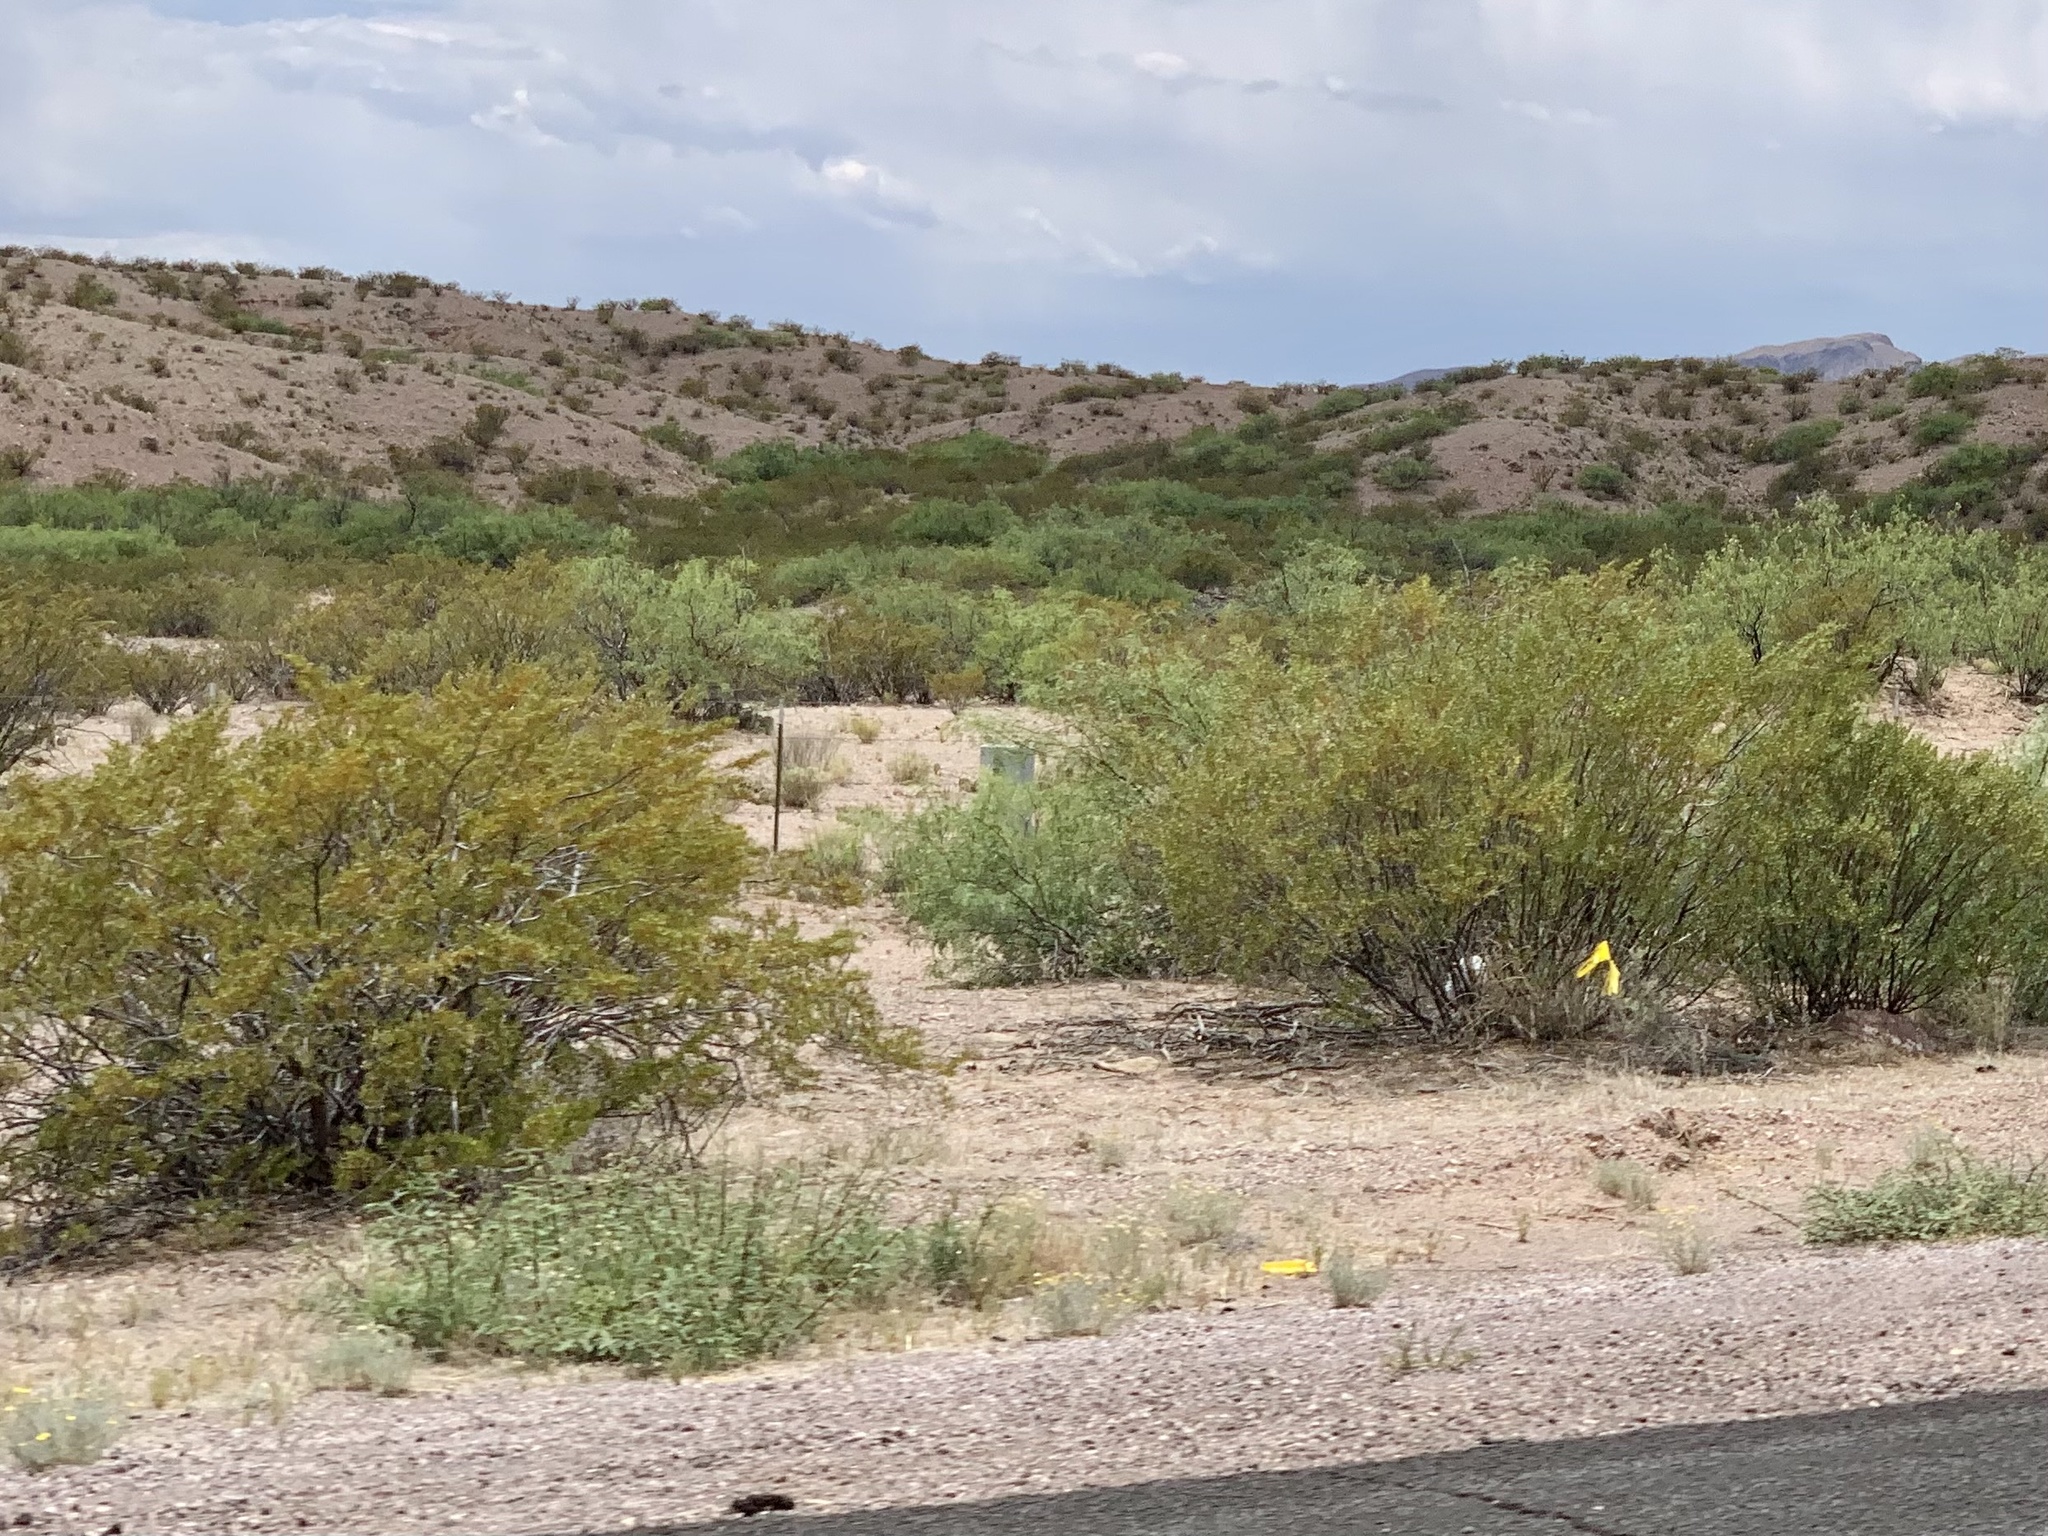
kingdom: Plantae
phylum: Tracheophyta
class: Magnoliopsida
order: Zygophyllales
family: Zygophyllaceae
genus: Larrea
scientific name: Larrea tridentata
